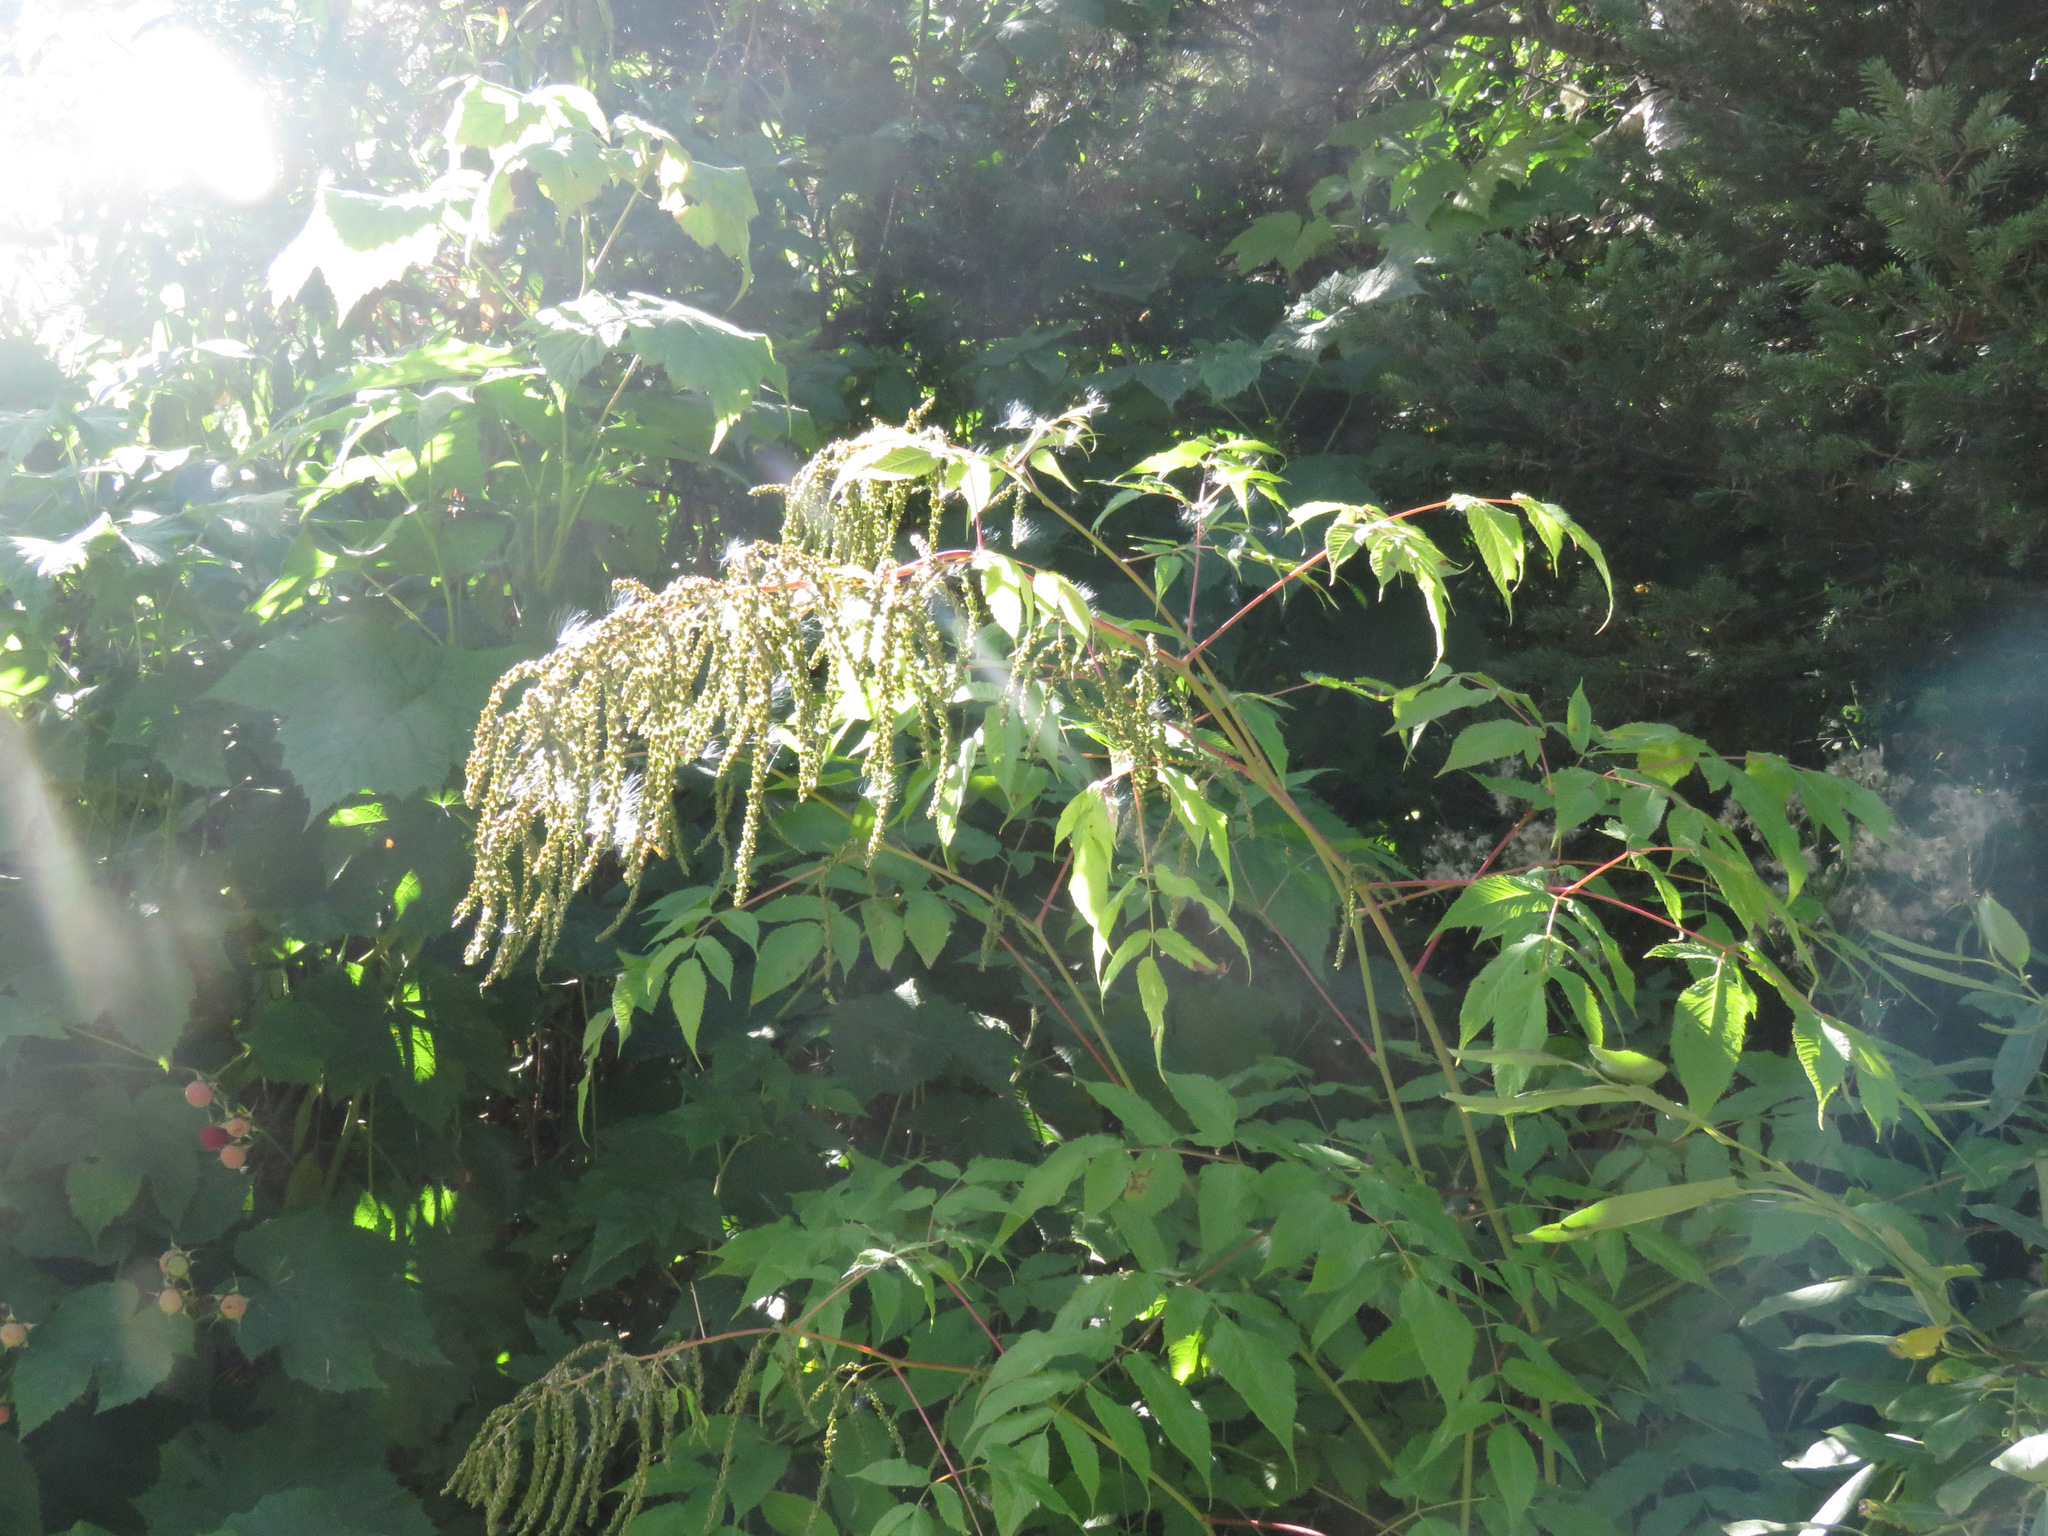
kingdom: Plantae
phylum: Tracheophyta
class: Magnoliopsida
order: Rosales
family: Rosaceae
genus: Aruncus
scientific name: Aruncus dioicus
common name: Buck's-beard
